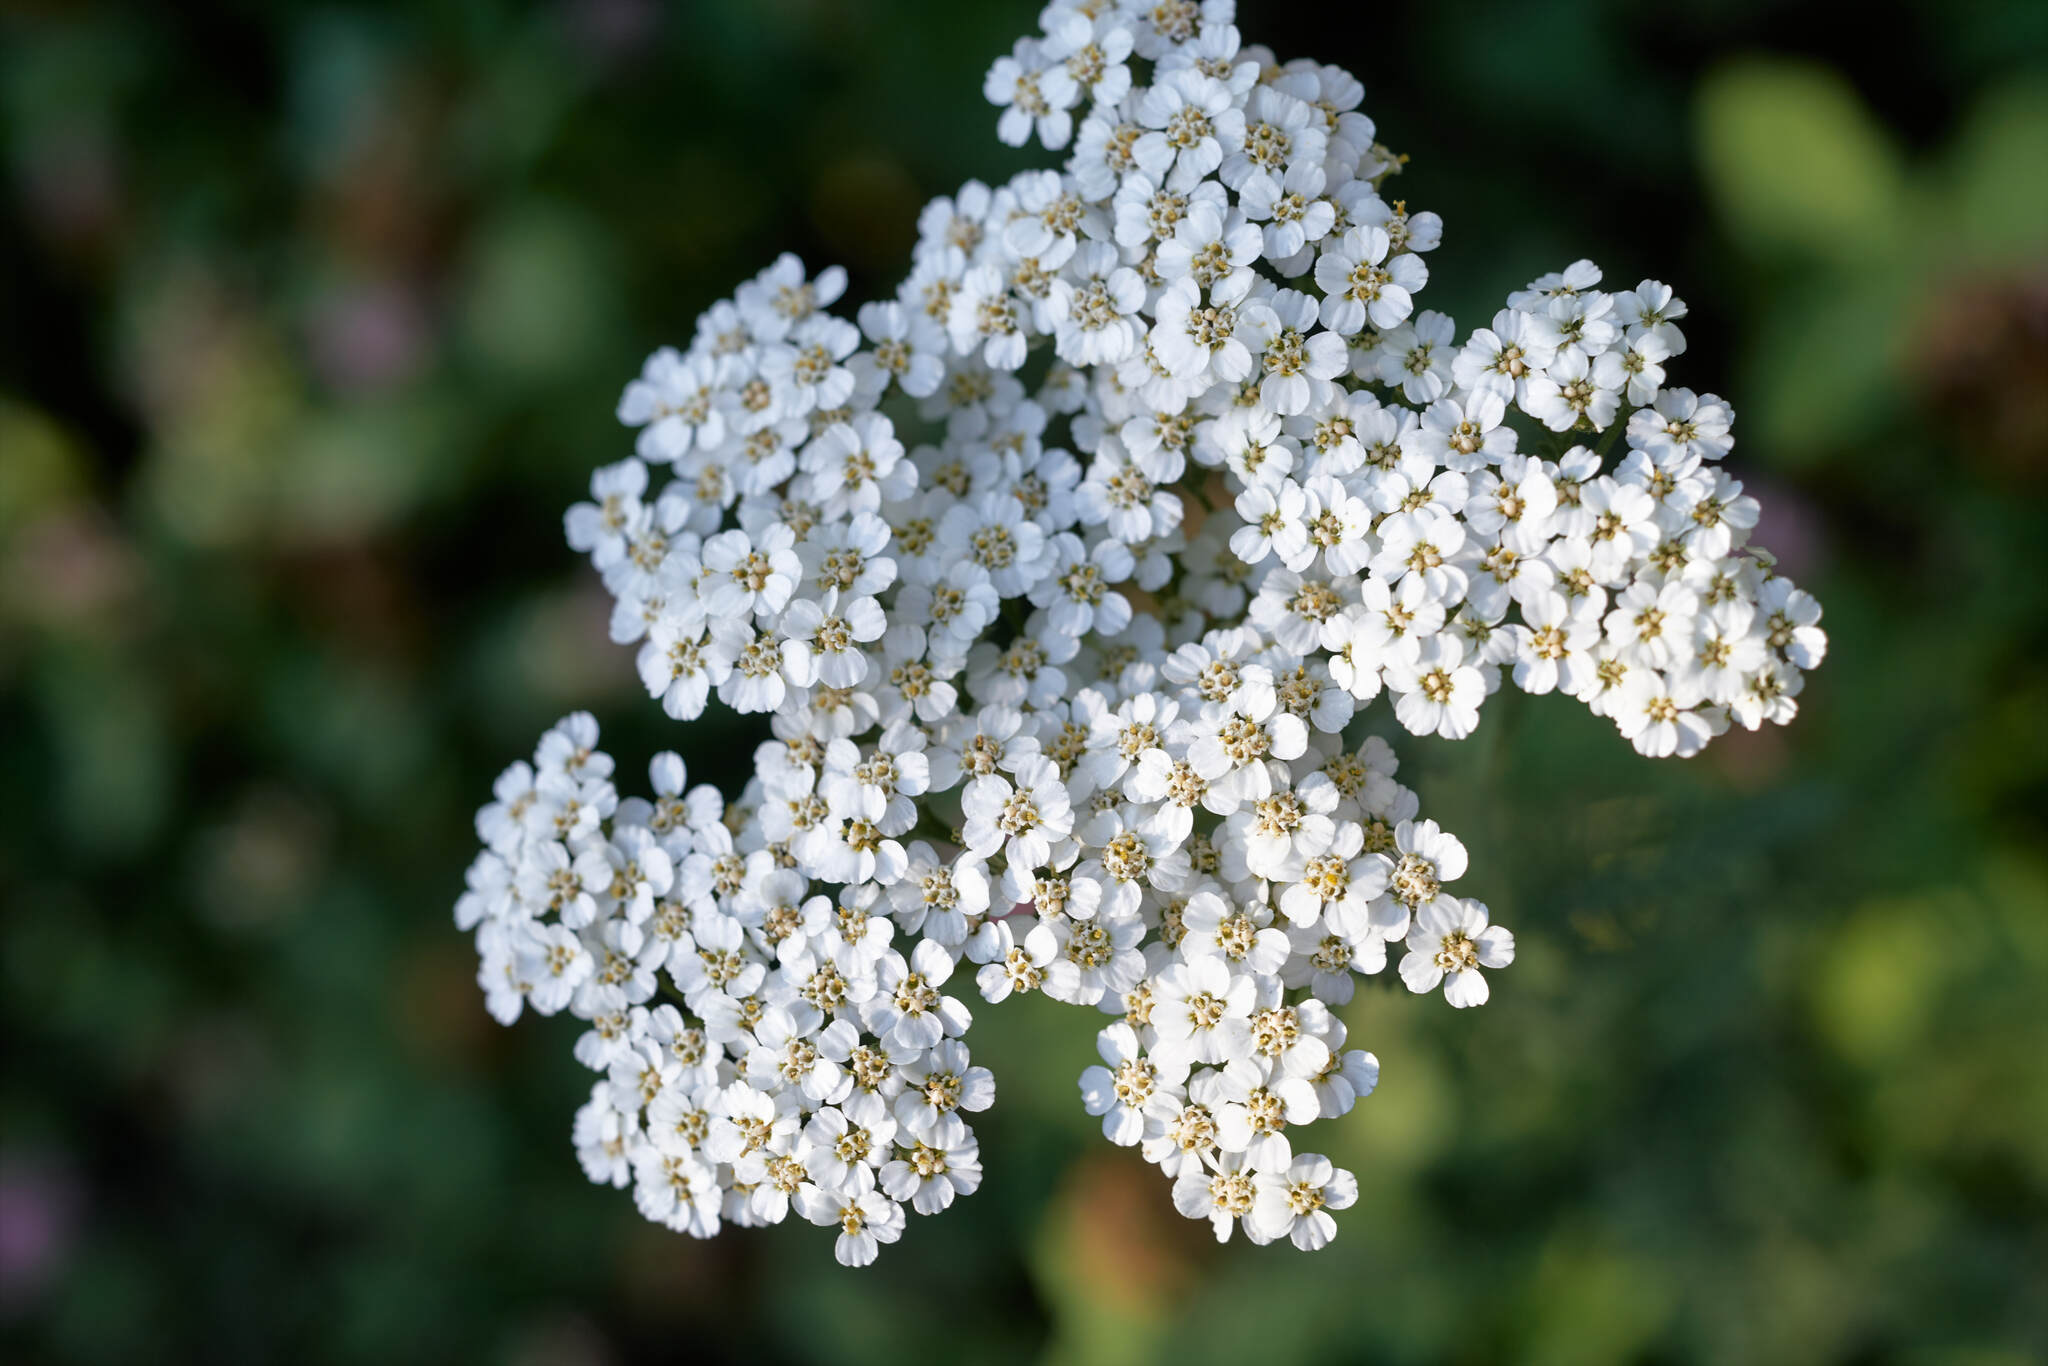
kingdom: Plantae
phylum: Tracheophyta
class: Magnoliopsida
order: Asterales
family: Asteraceae
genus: Achillea
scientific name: Achillea millefolium
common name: Yarrow
